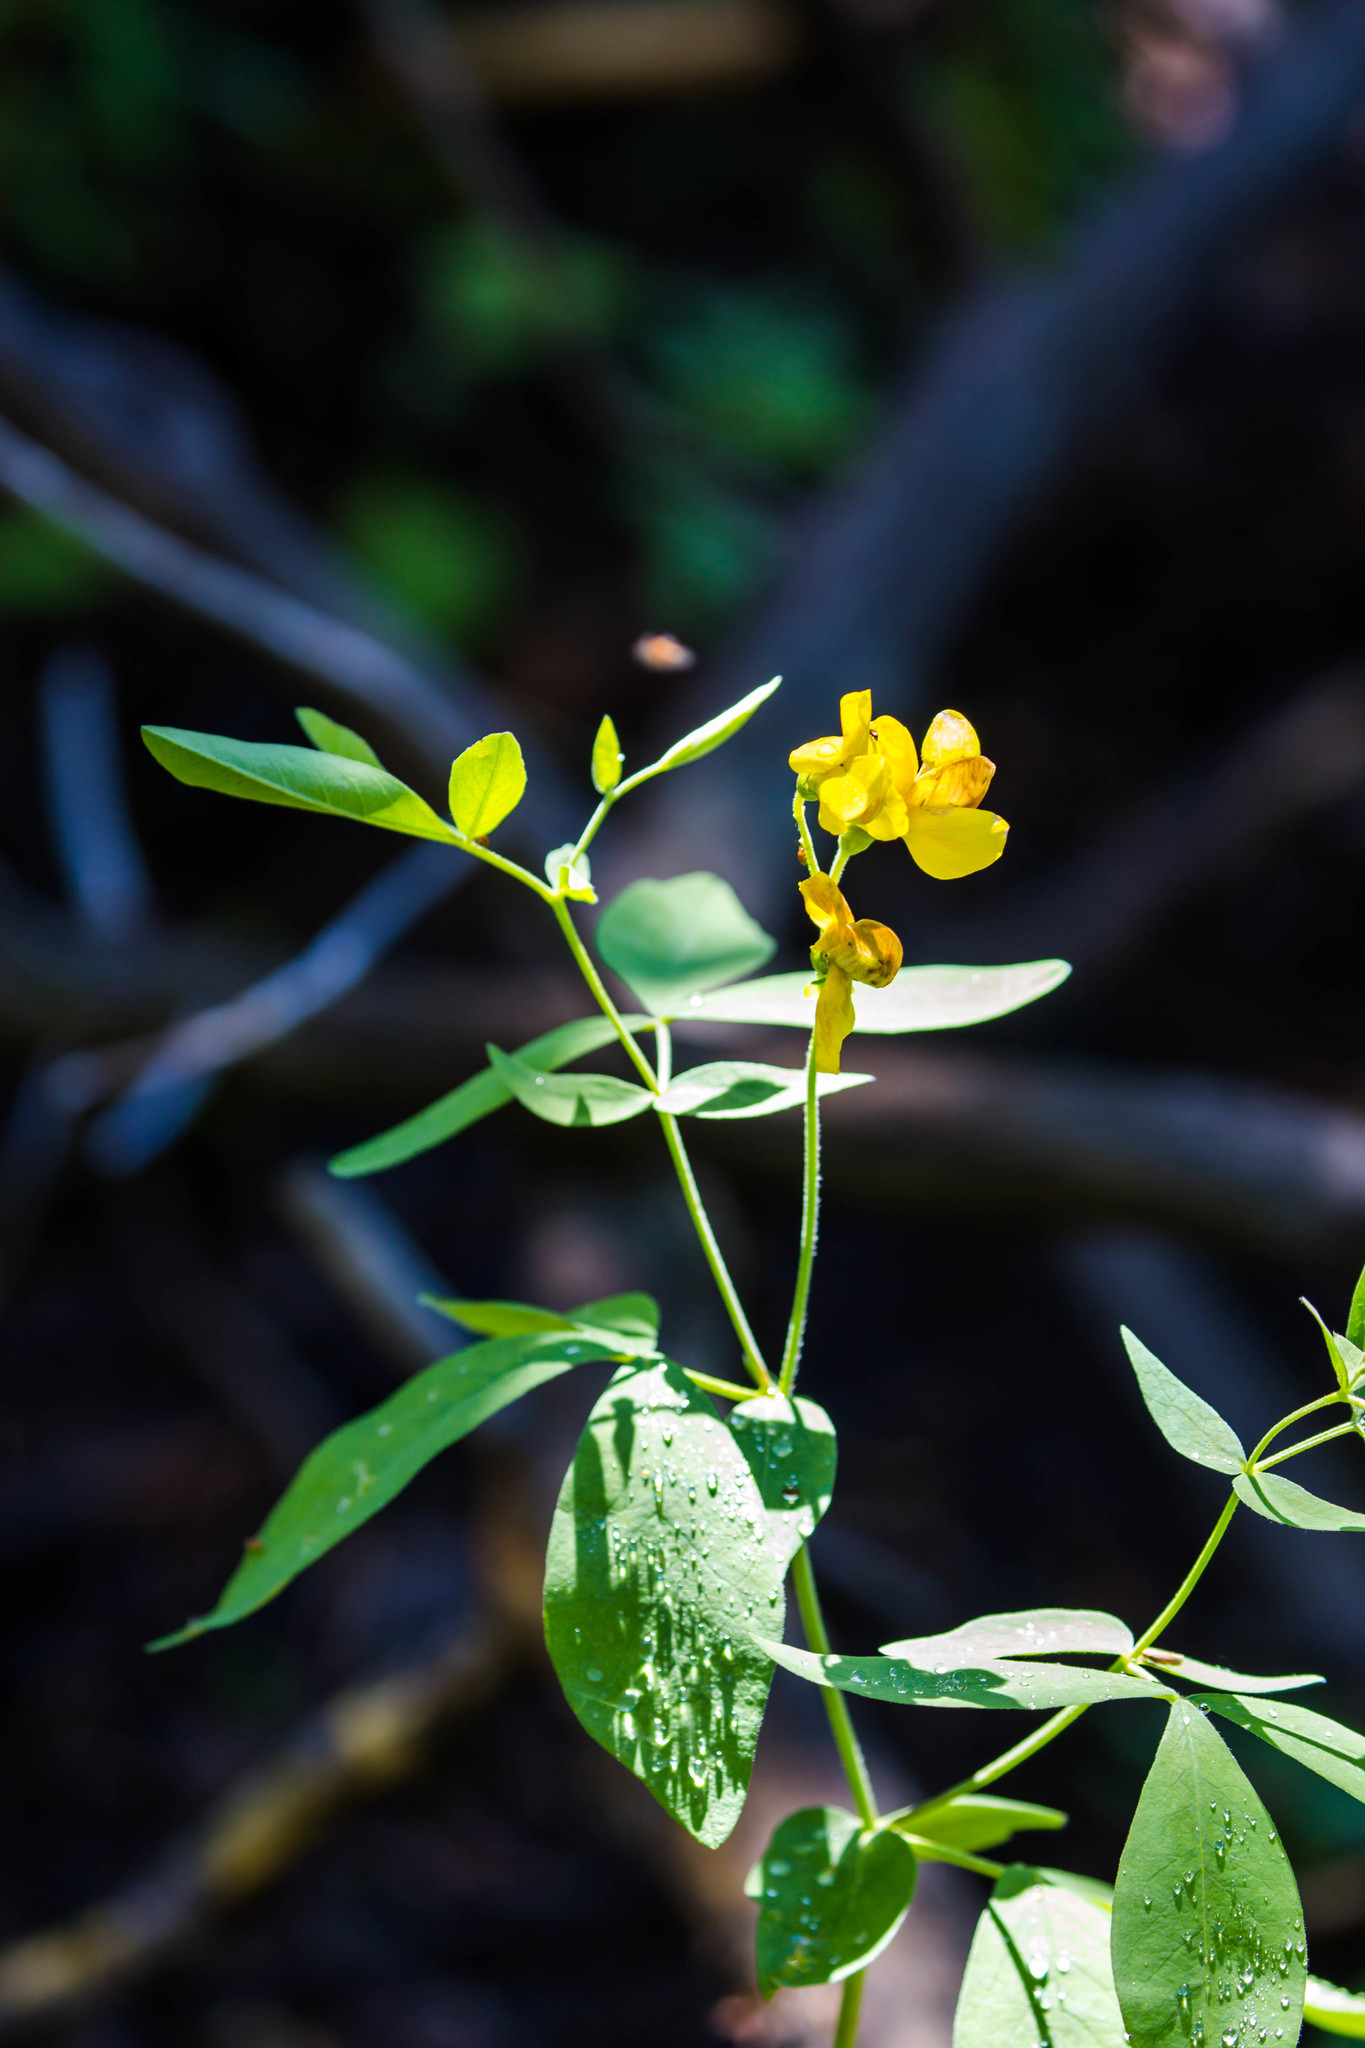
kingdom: Plantae
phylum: Tracheophyta
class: Magnoliopsida
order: Fabales
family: Fabaceae
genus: Thermopsis
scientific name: Thermopsis montana
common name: False lupin
